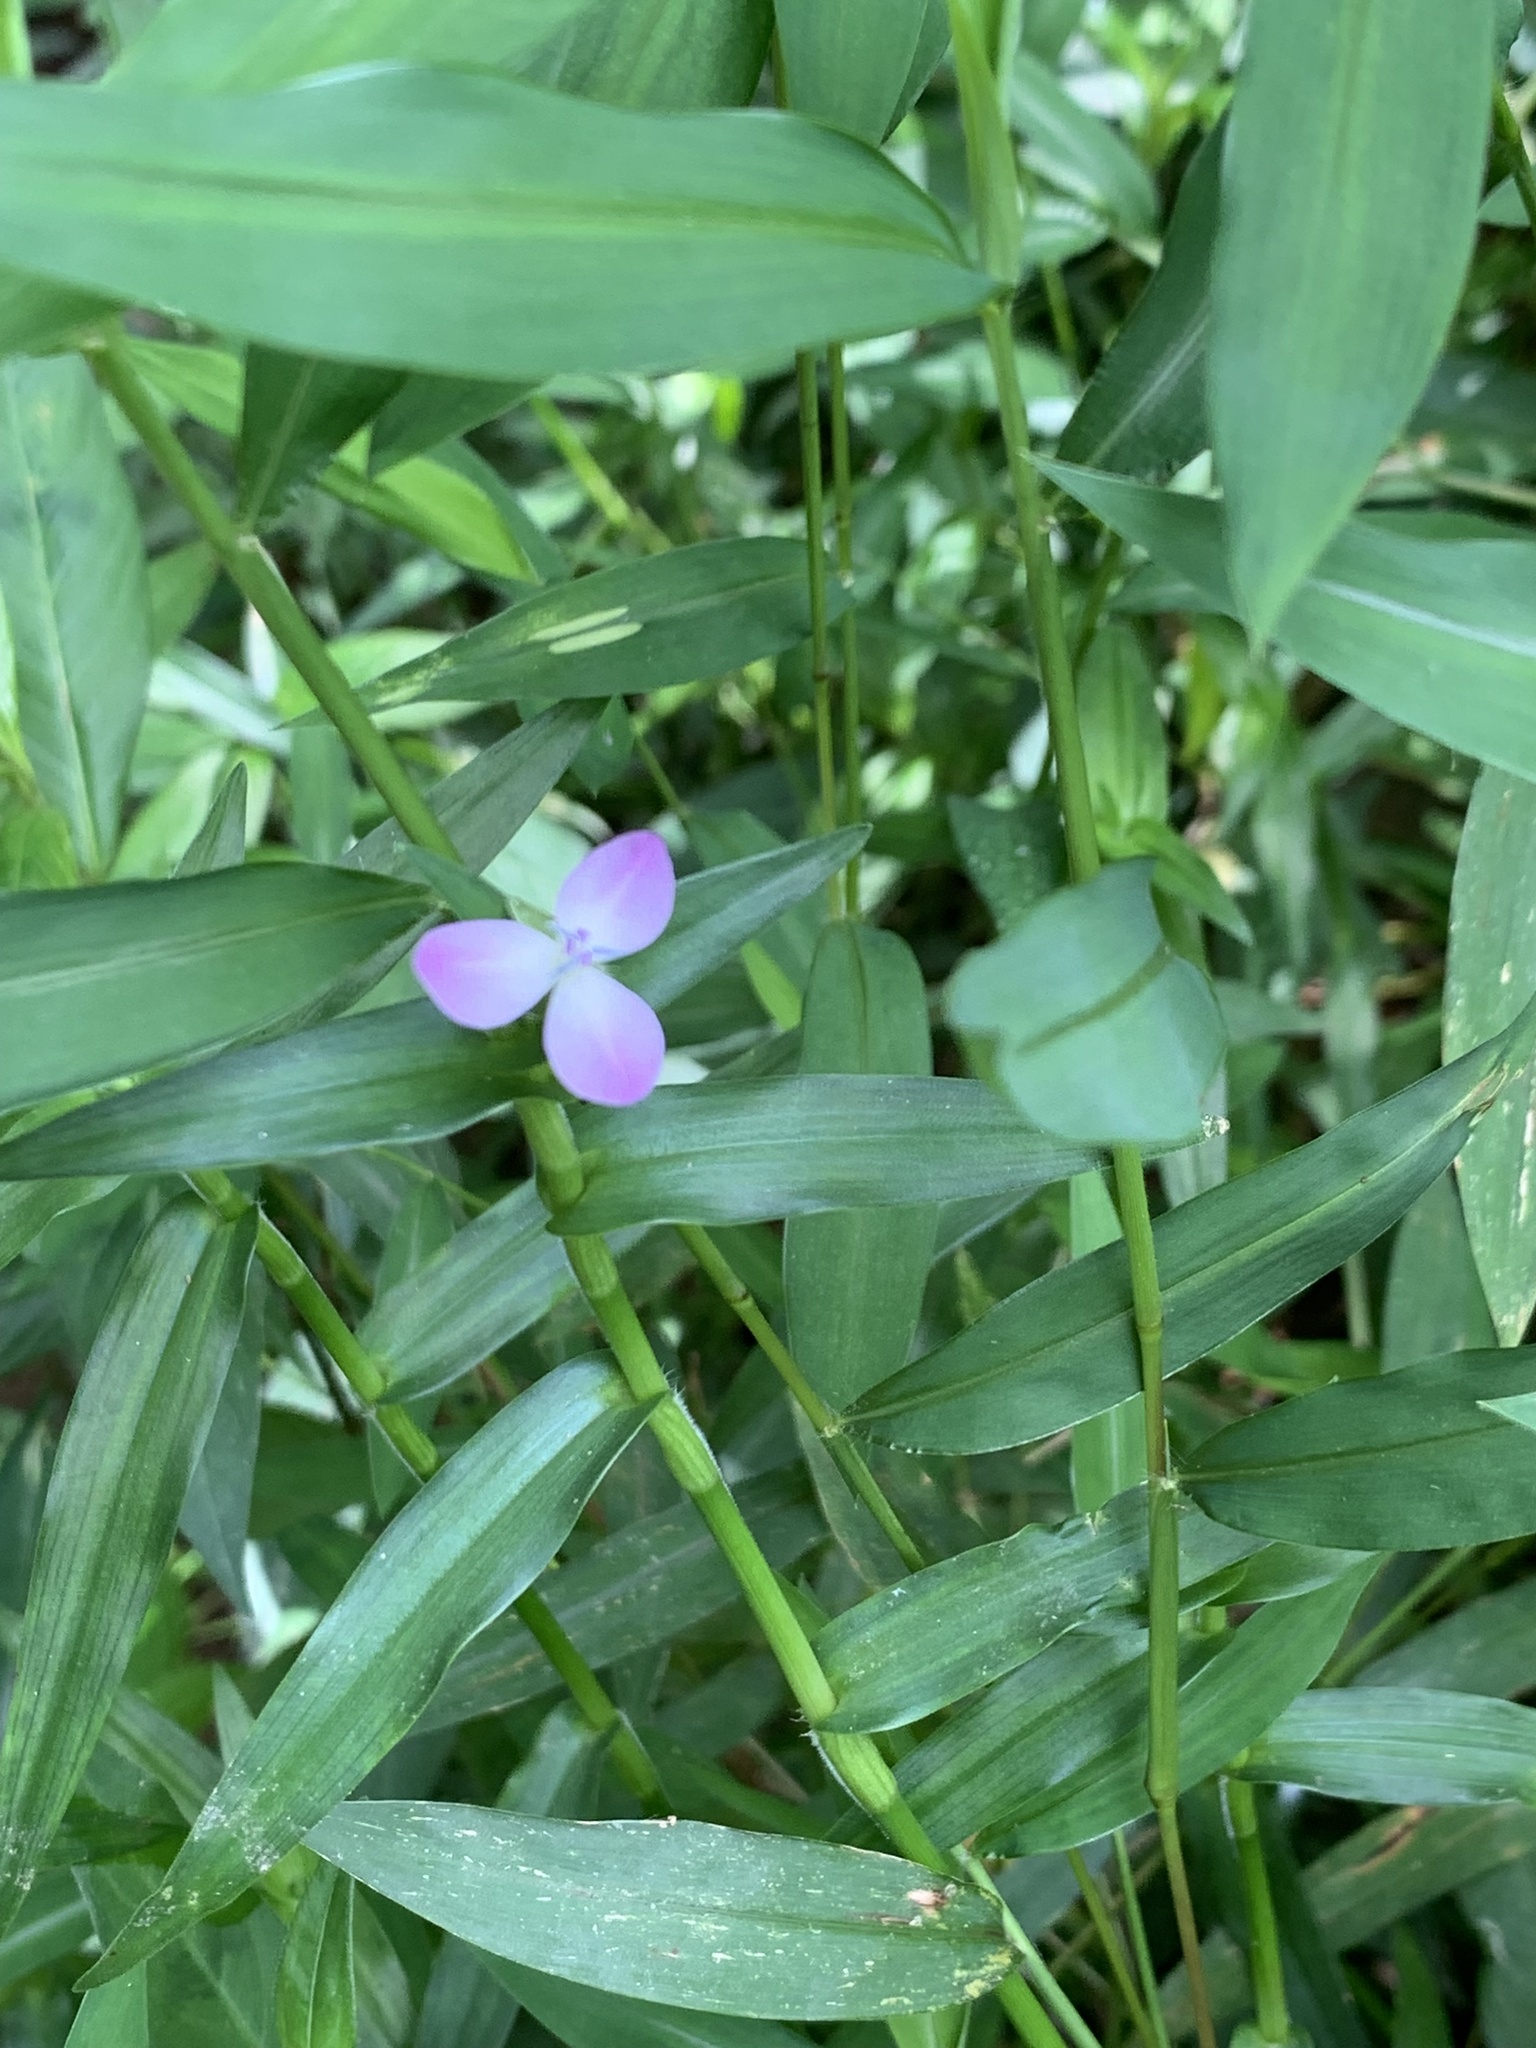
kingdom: Plantae
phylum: Tracheophyta
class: Liliopsida
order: Commelinales
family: Commelinaceae
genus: Murdannia
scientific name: Murdannia keisak
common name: Wartremoving herb
